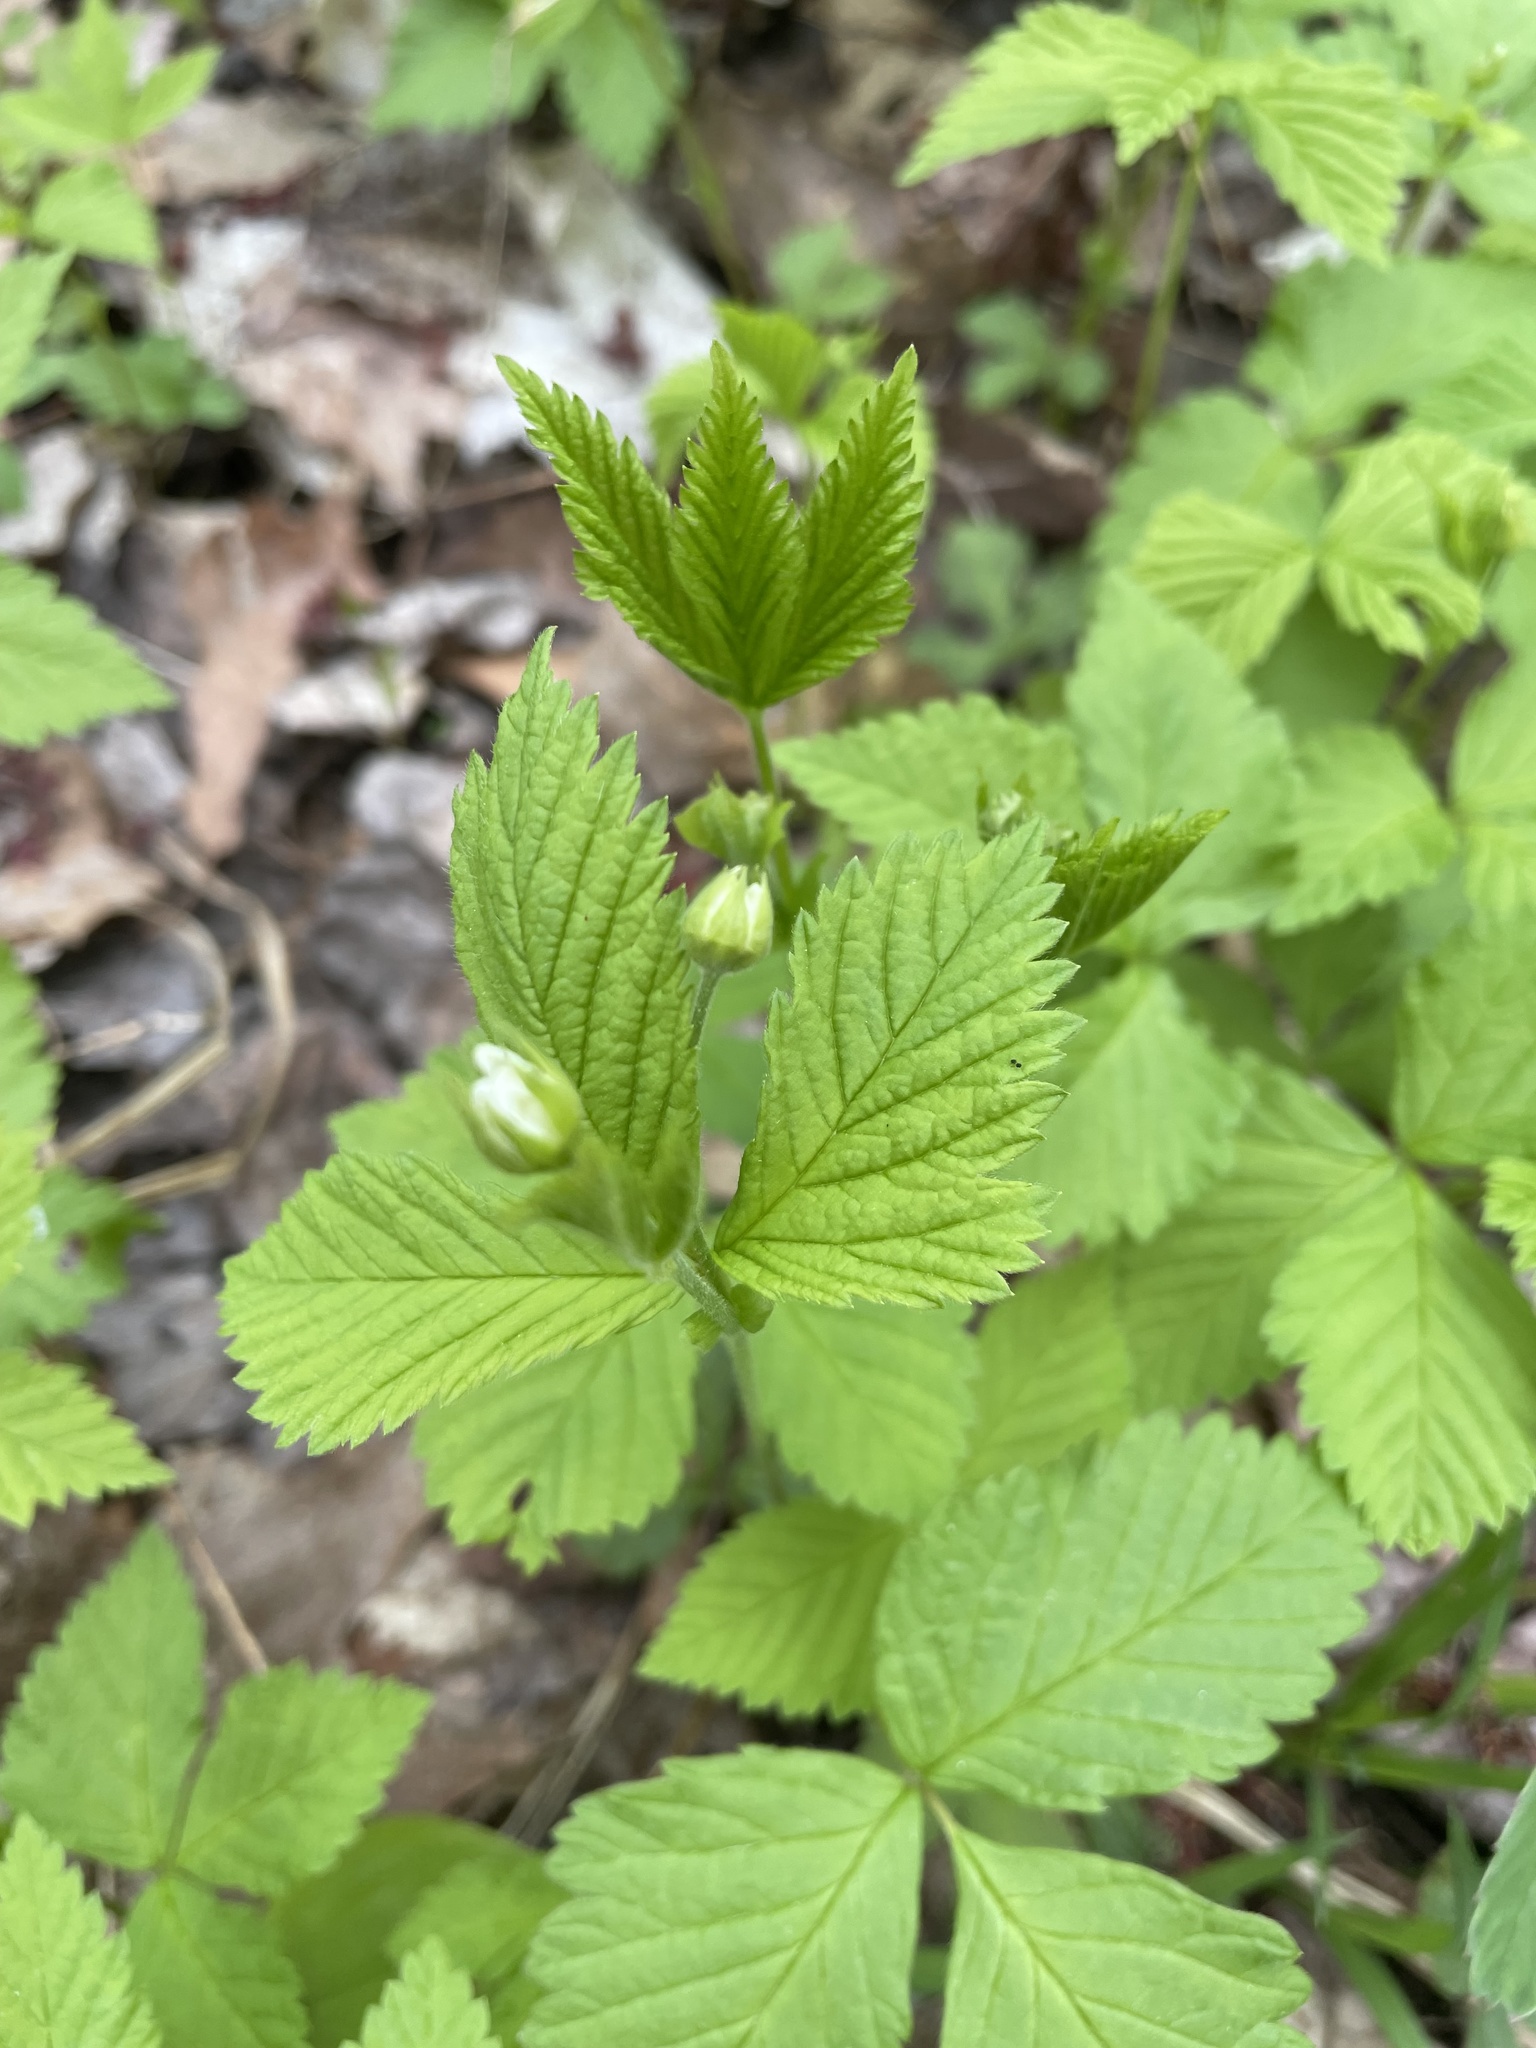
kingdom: Plantae
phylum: Tracheophyta
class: Magnoliopsida
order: Rosales
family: Rosaceae
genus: Rubus
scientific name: Rubus pubescens
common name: Dwarf raspberry
